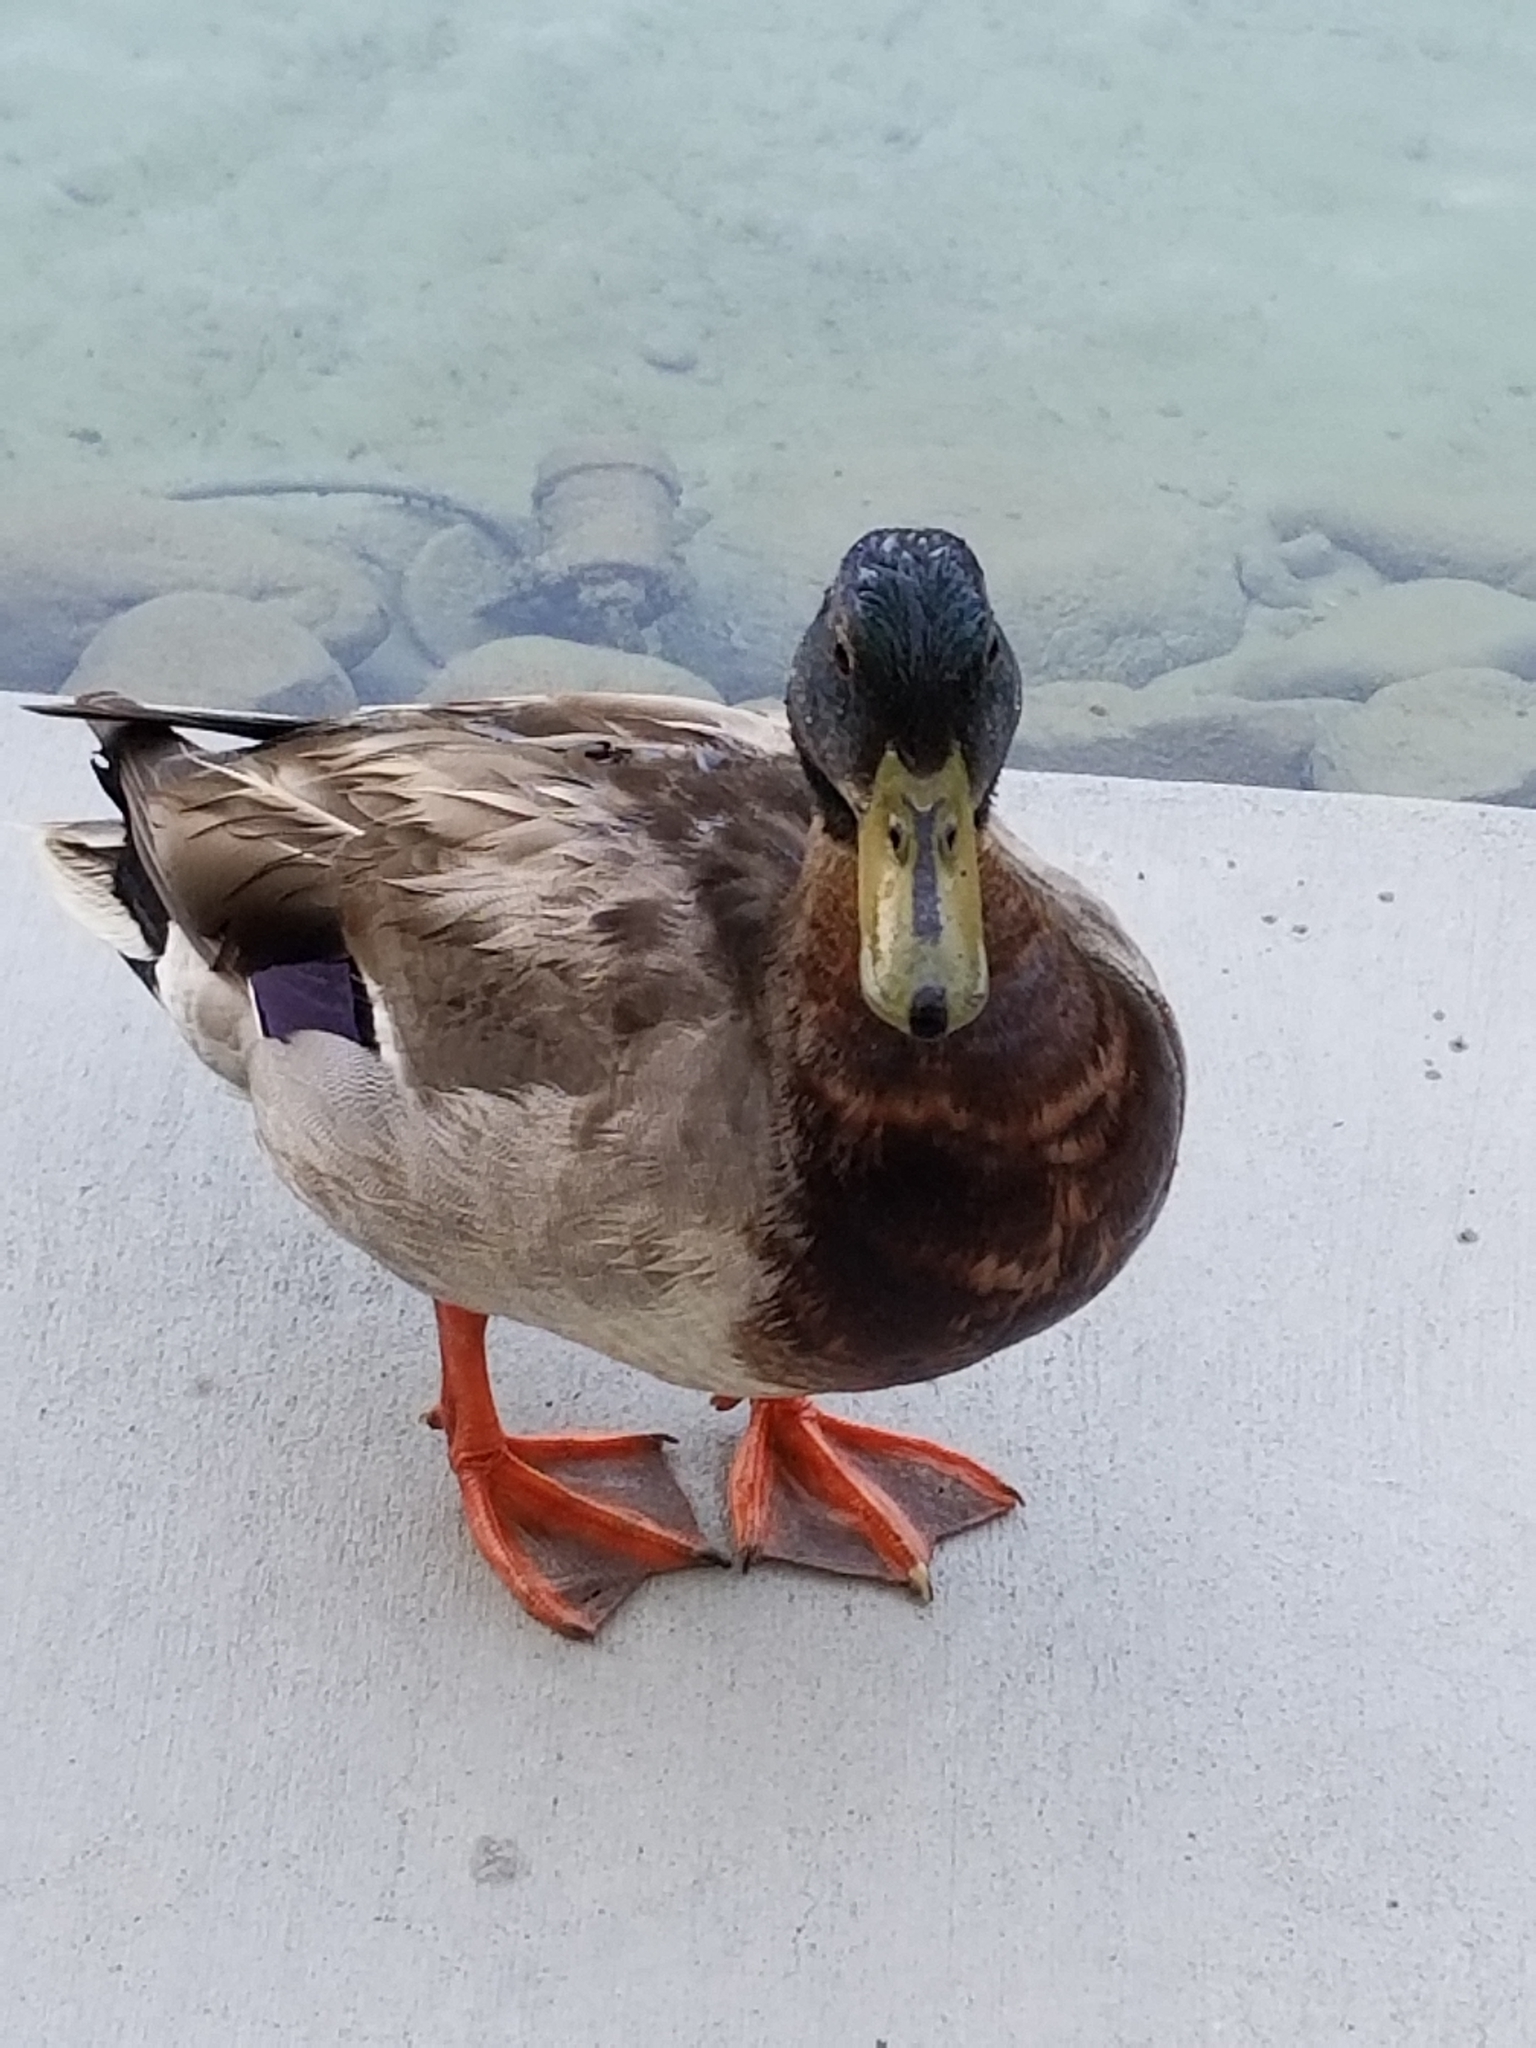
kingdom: Animalia
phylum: Chordata
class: Aves
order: Anseriformes
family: Anatidae
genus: Anas
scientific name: Anas platyrhynchos
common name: Mallard
